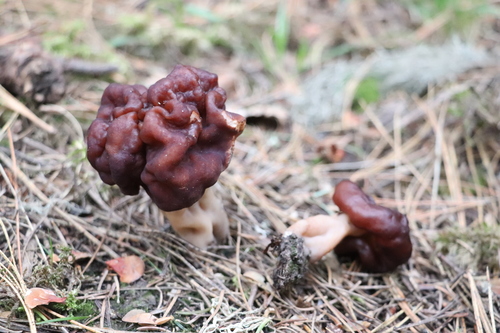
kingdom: Fungi
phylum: Ascomycota
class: Pezizomycetes
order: Pezizales
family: Discinaceae
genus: Gyromitra
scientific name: Gyromitra esculenta
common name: False morel
